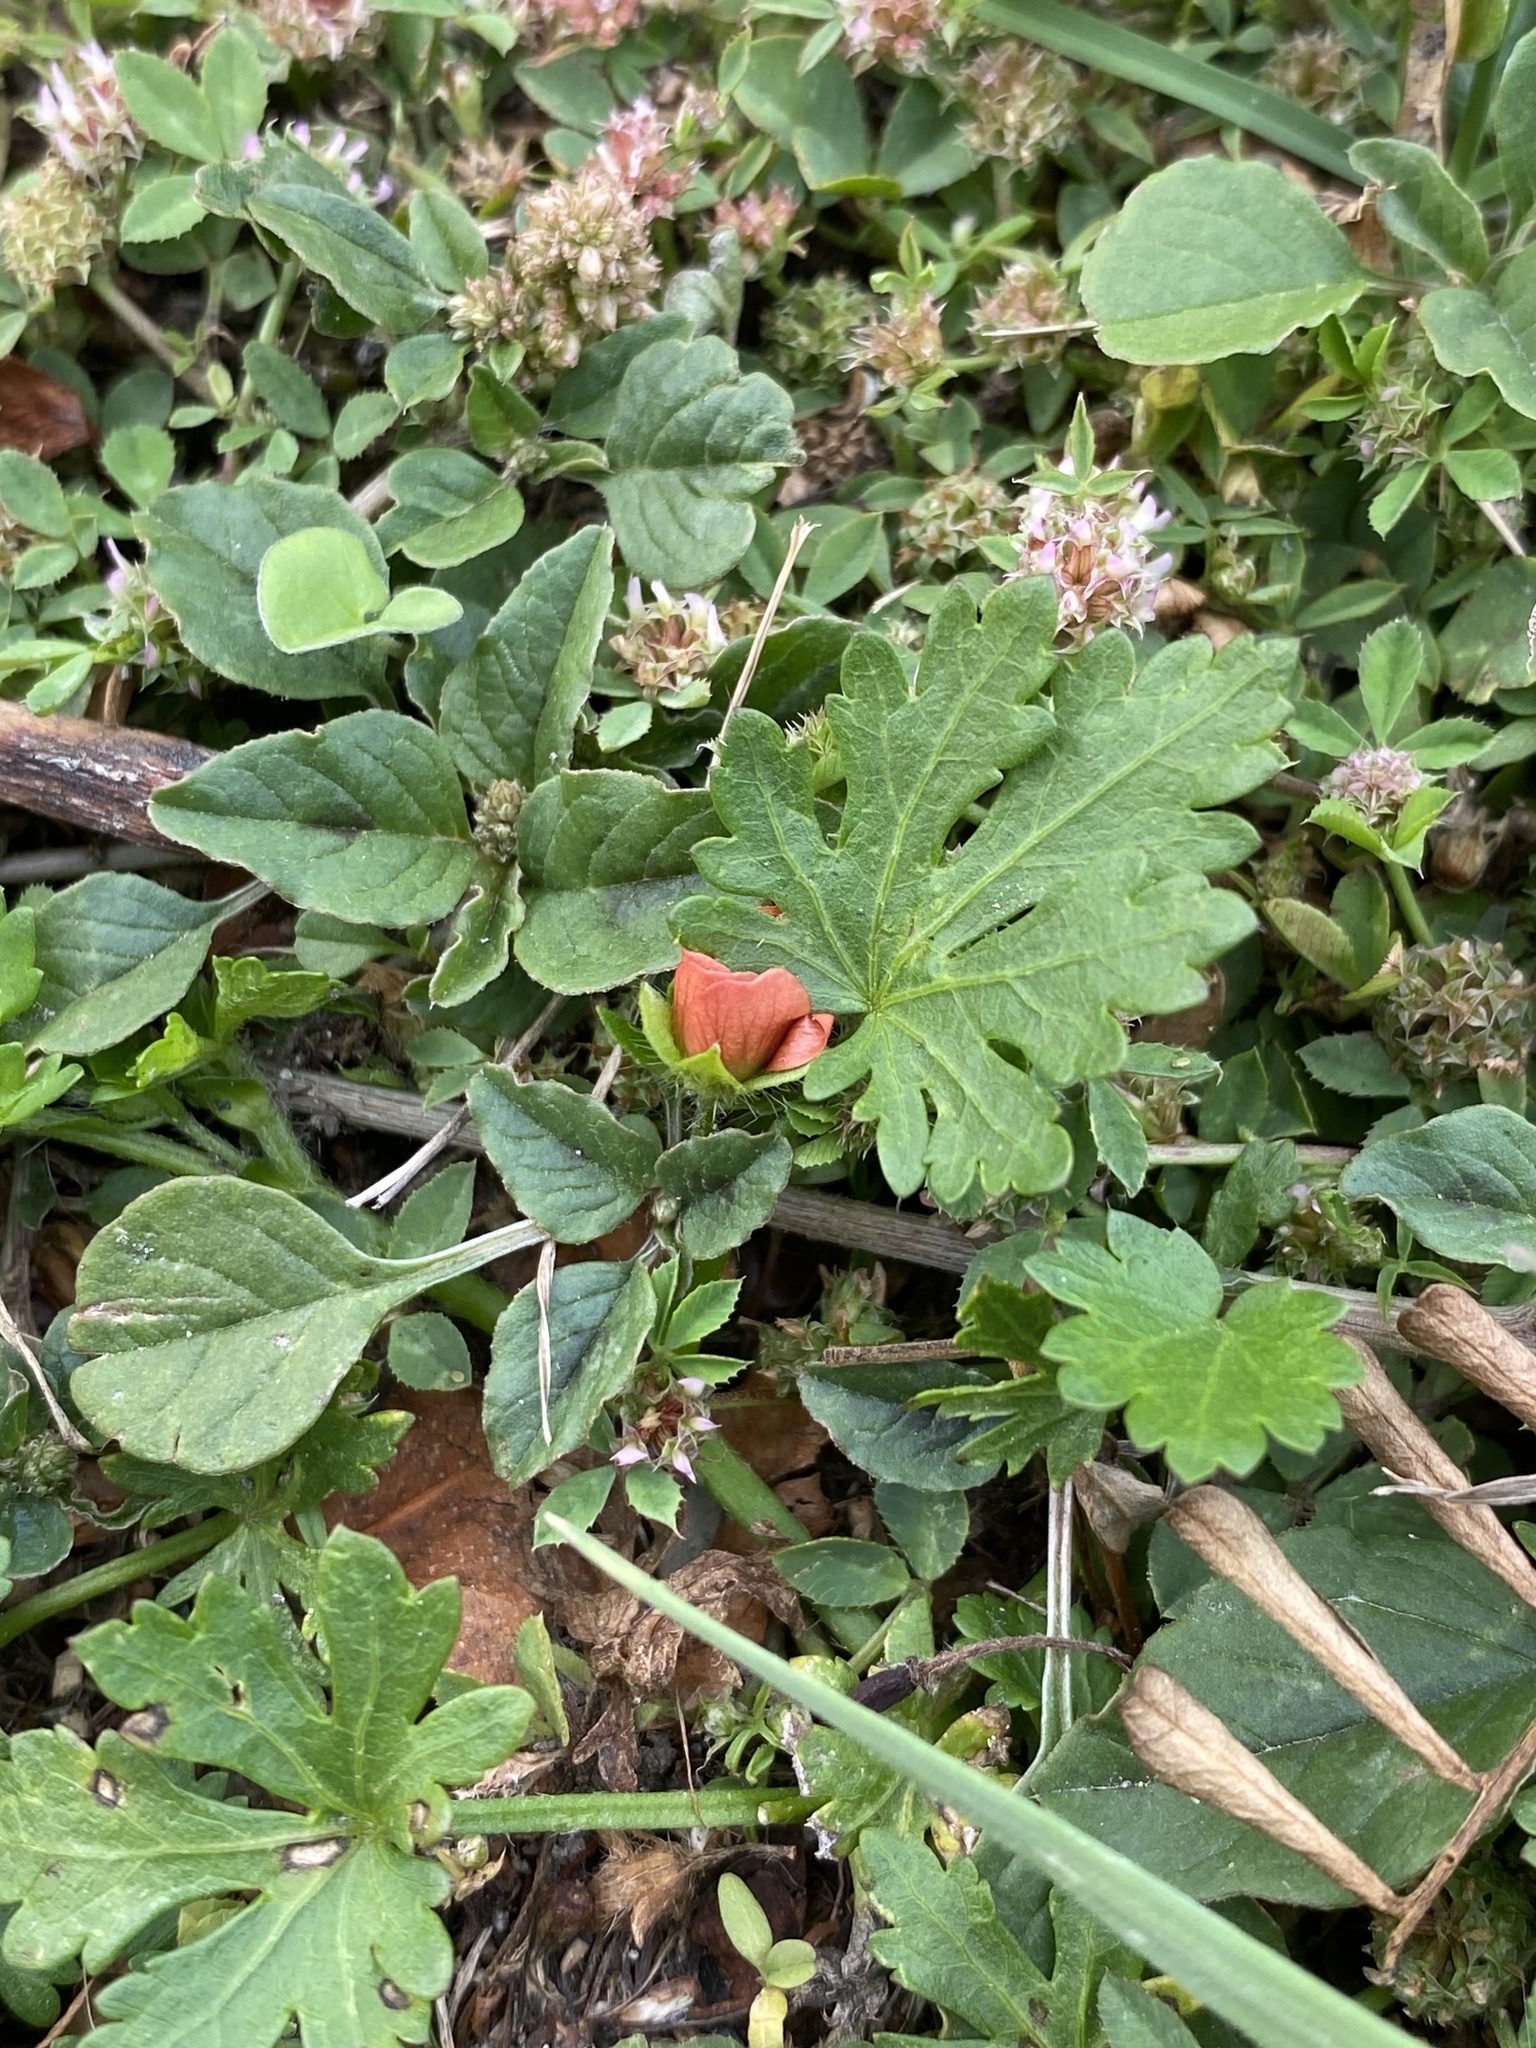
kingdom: Plantae
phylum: Tracheophyta
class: Magnoliopsida
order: Malvales
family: Malvaceae
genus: Modiola
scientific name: Modiola caroliniana
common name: Carolina bristlemallow
